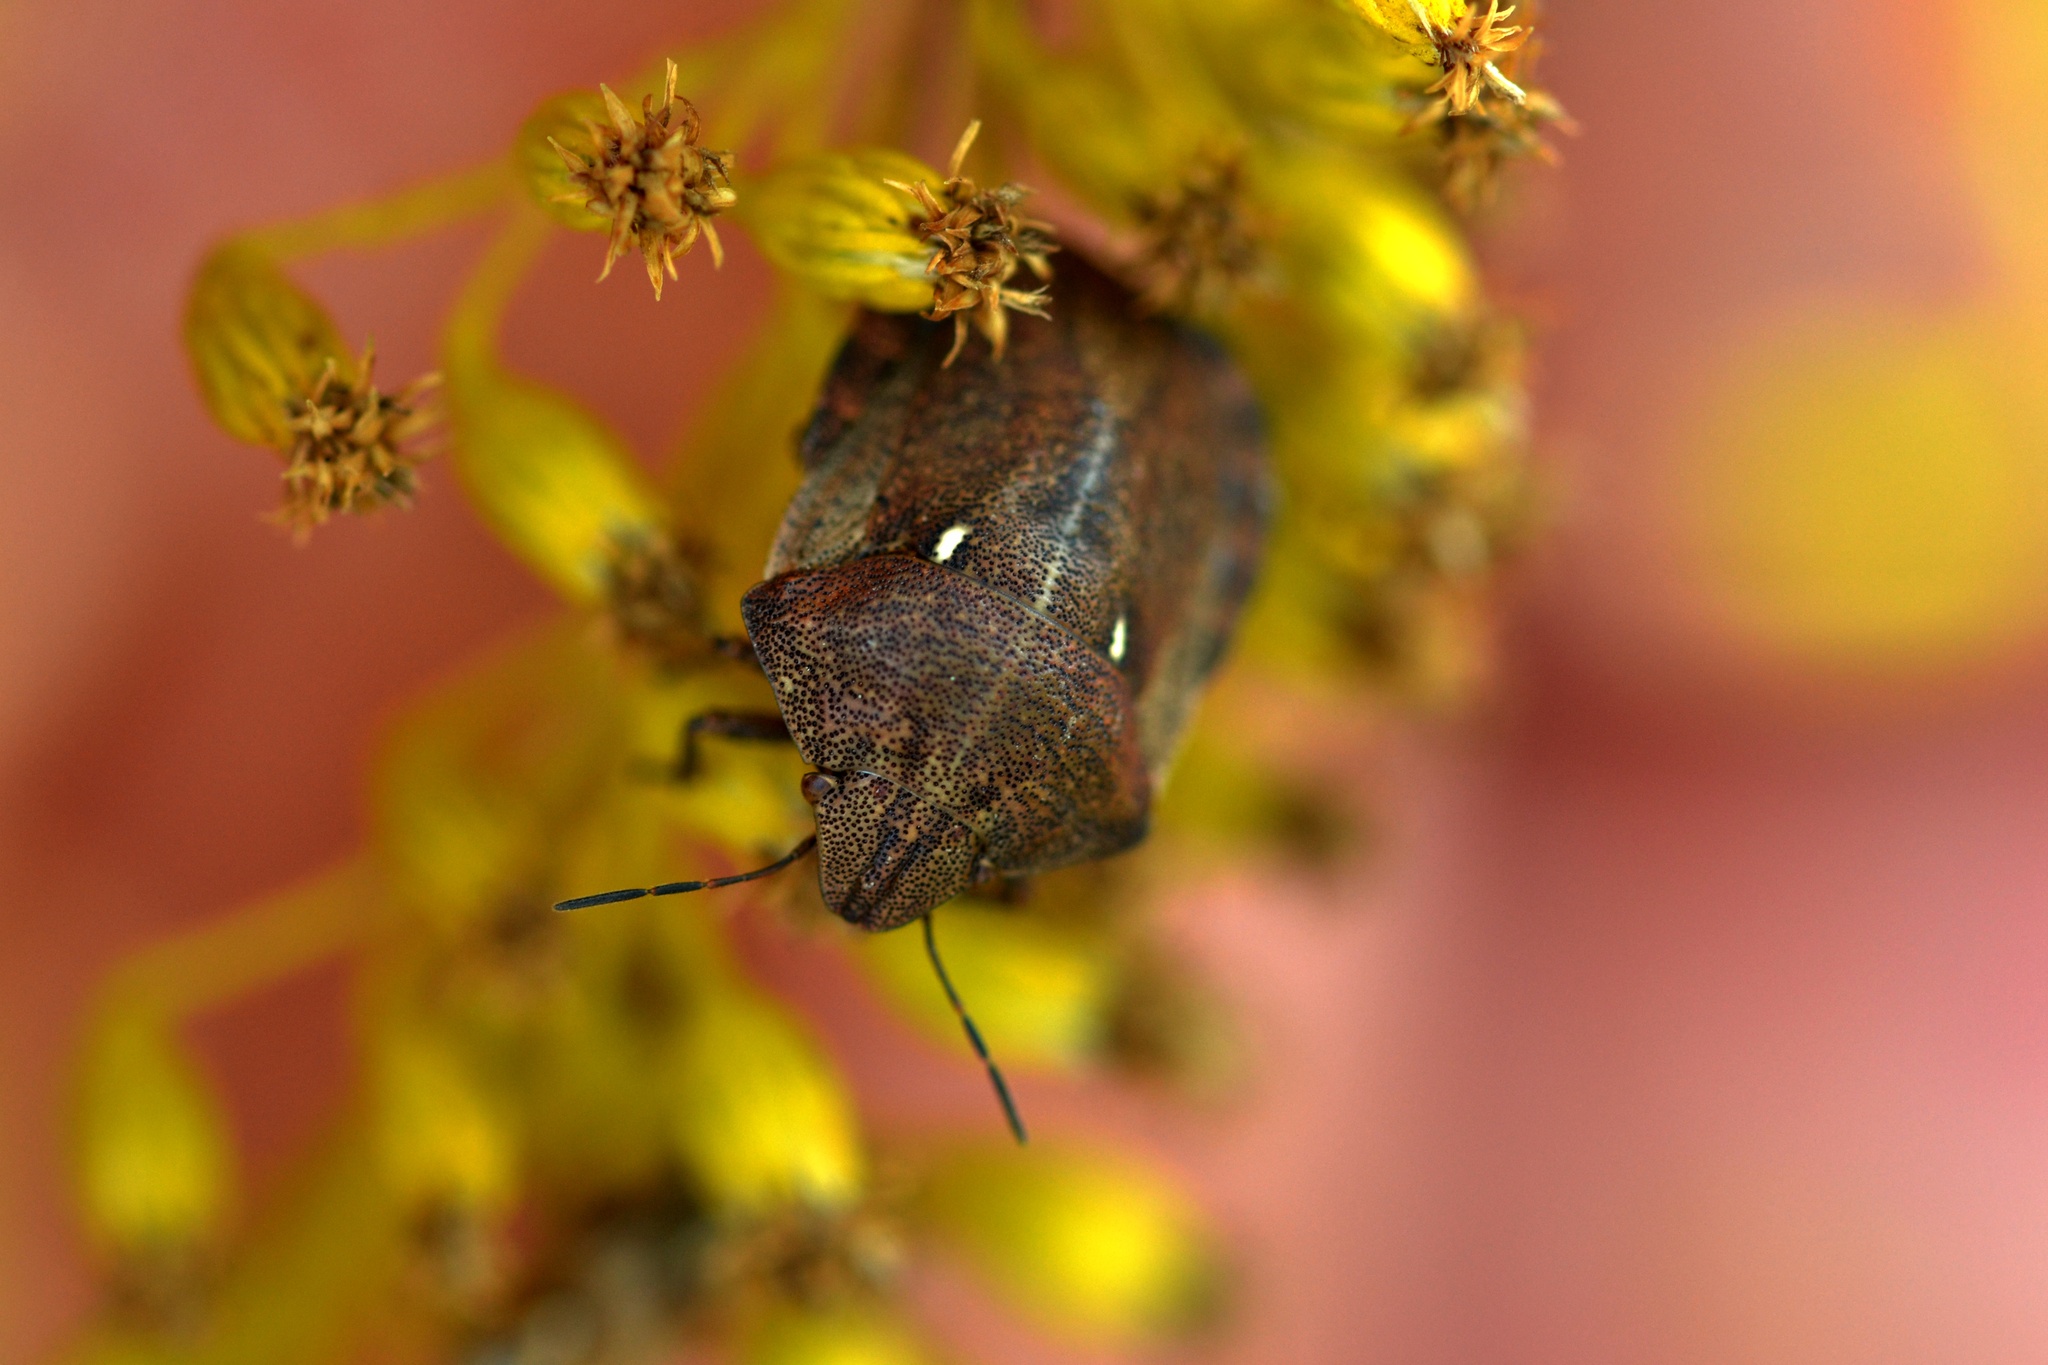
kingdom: Animalia
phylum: Arthropoda
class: Insecta
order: Hemiptera
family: Scutelleridae
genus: Eurygaster
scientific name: Eurygaster testudinaria
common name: Tortoise bug
